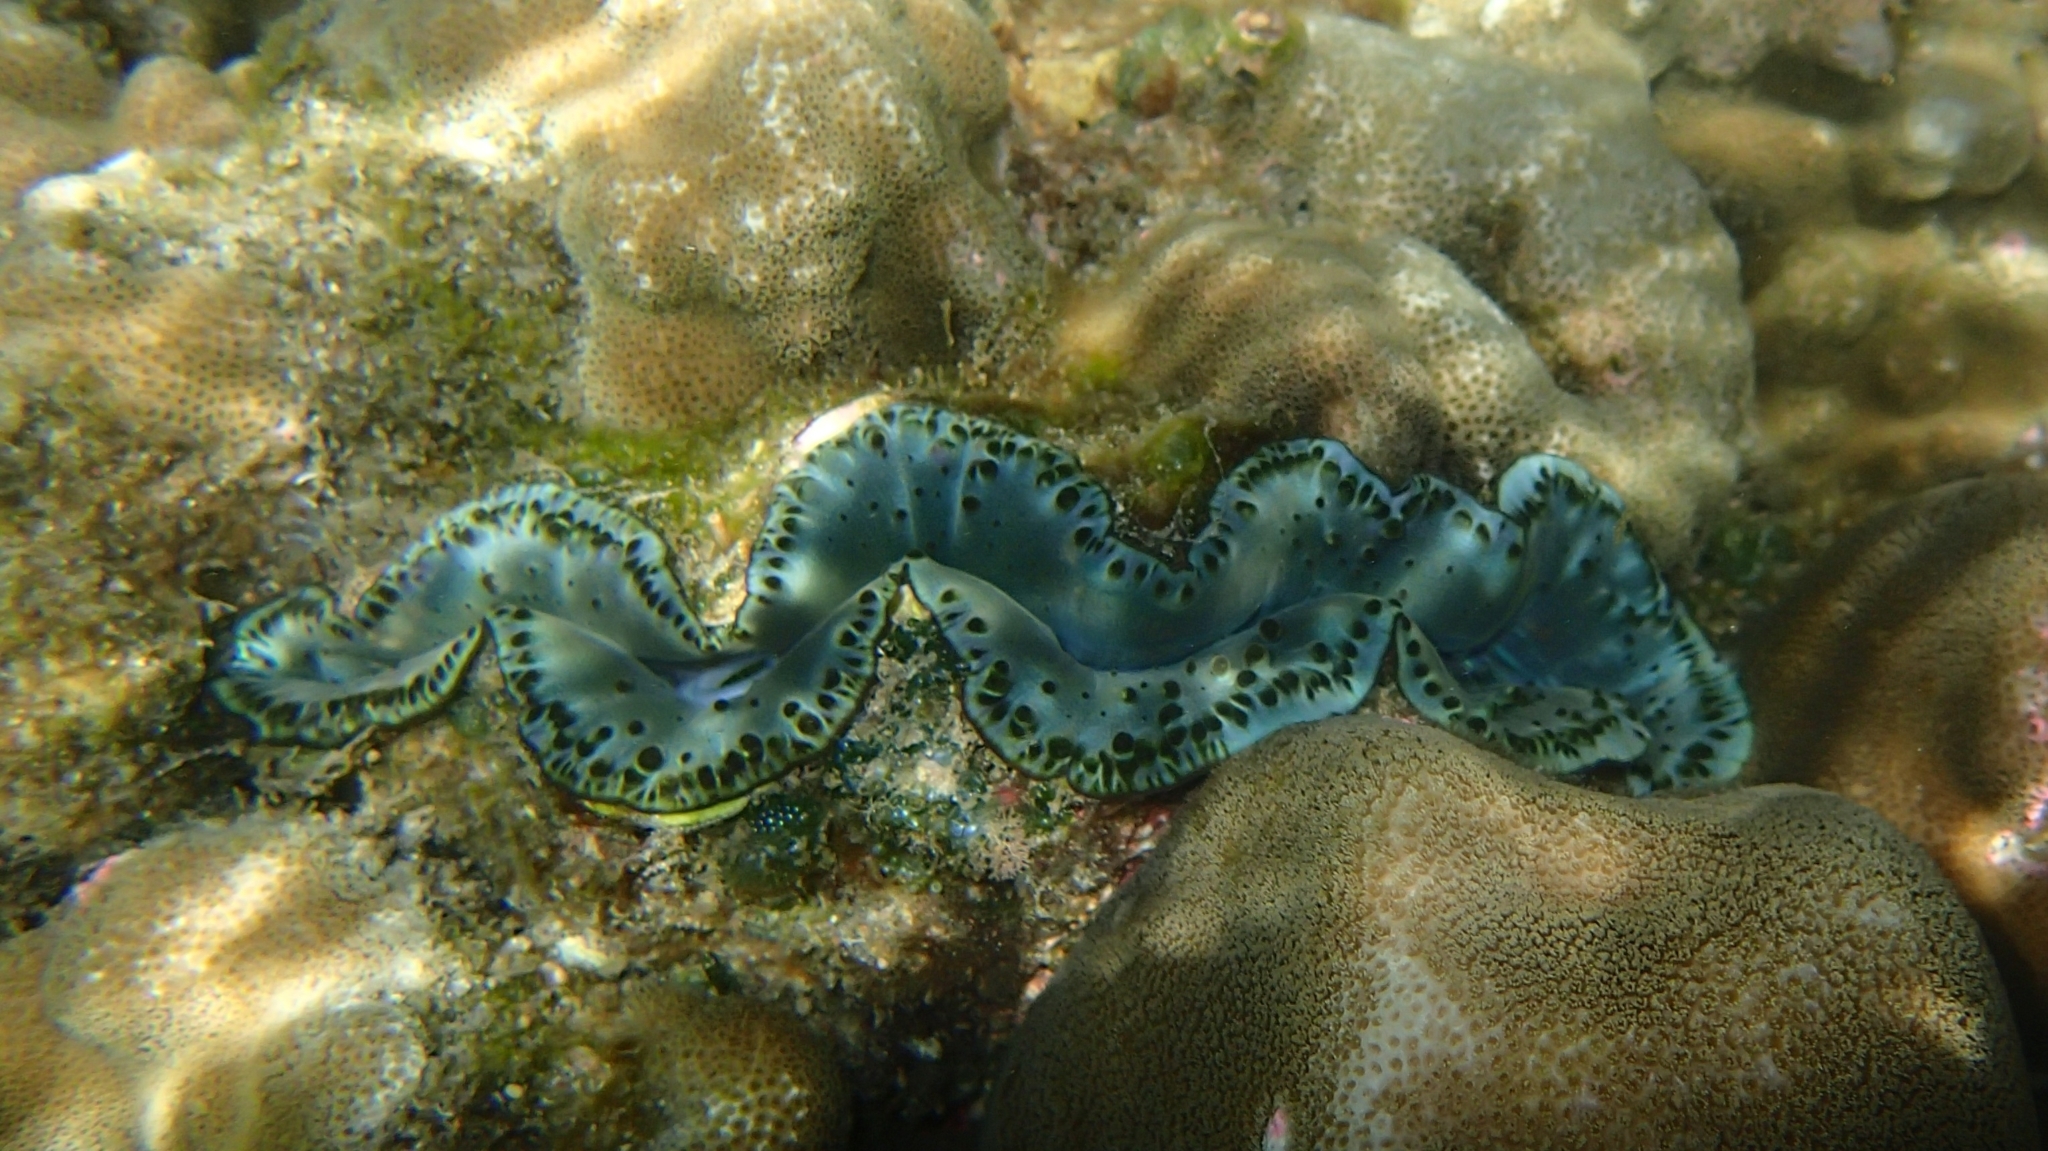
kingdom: Animalia
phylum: Mollusca
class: Bivalvia
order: Cardiida
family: Cardiidae
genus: Tridacna
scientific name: Tridacna maxima
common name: Small giant clam
